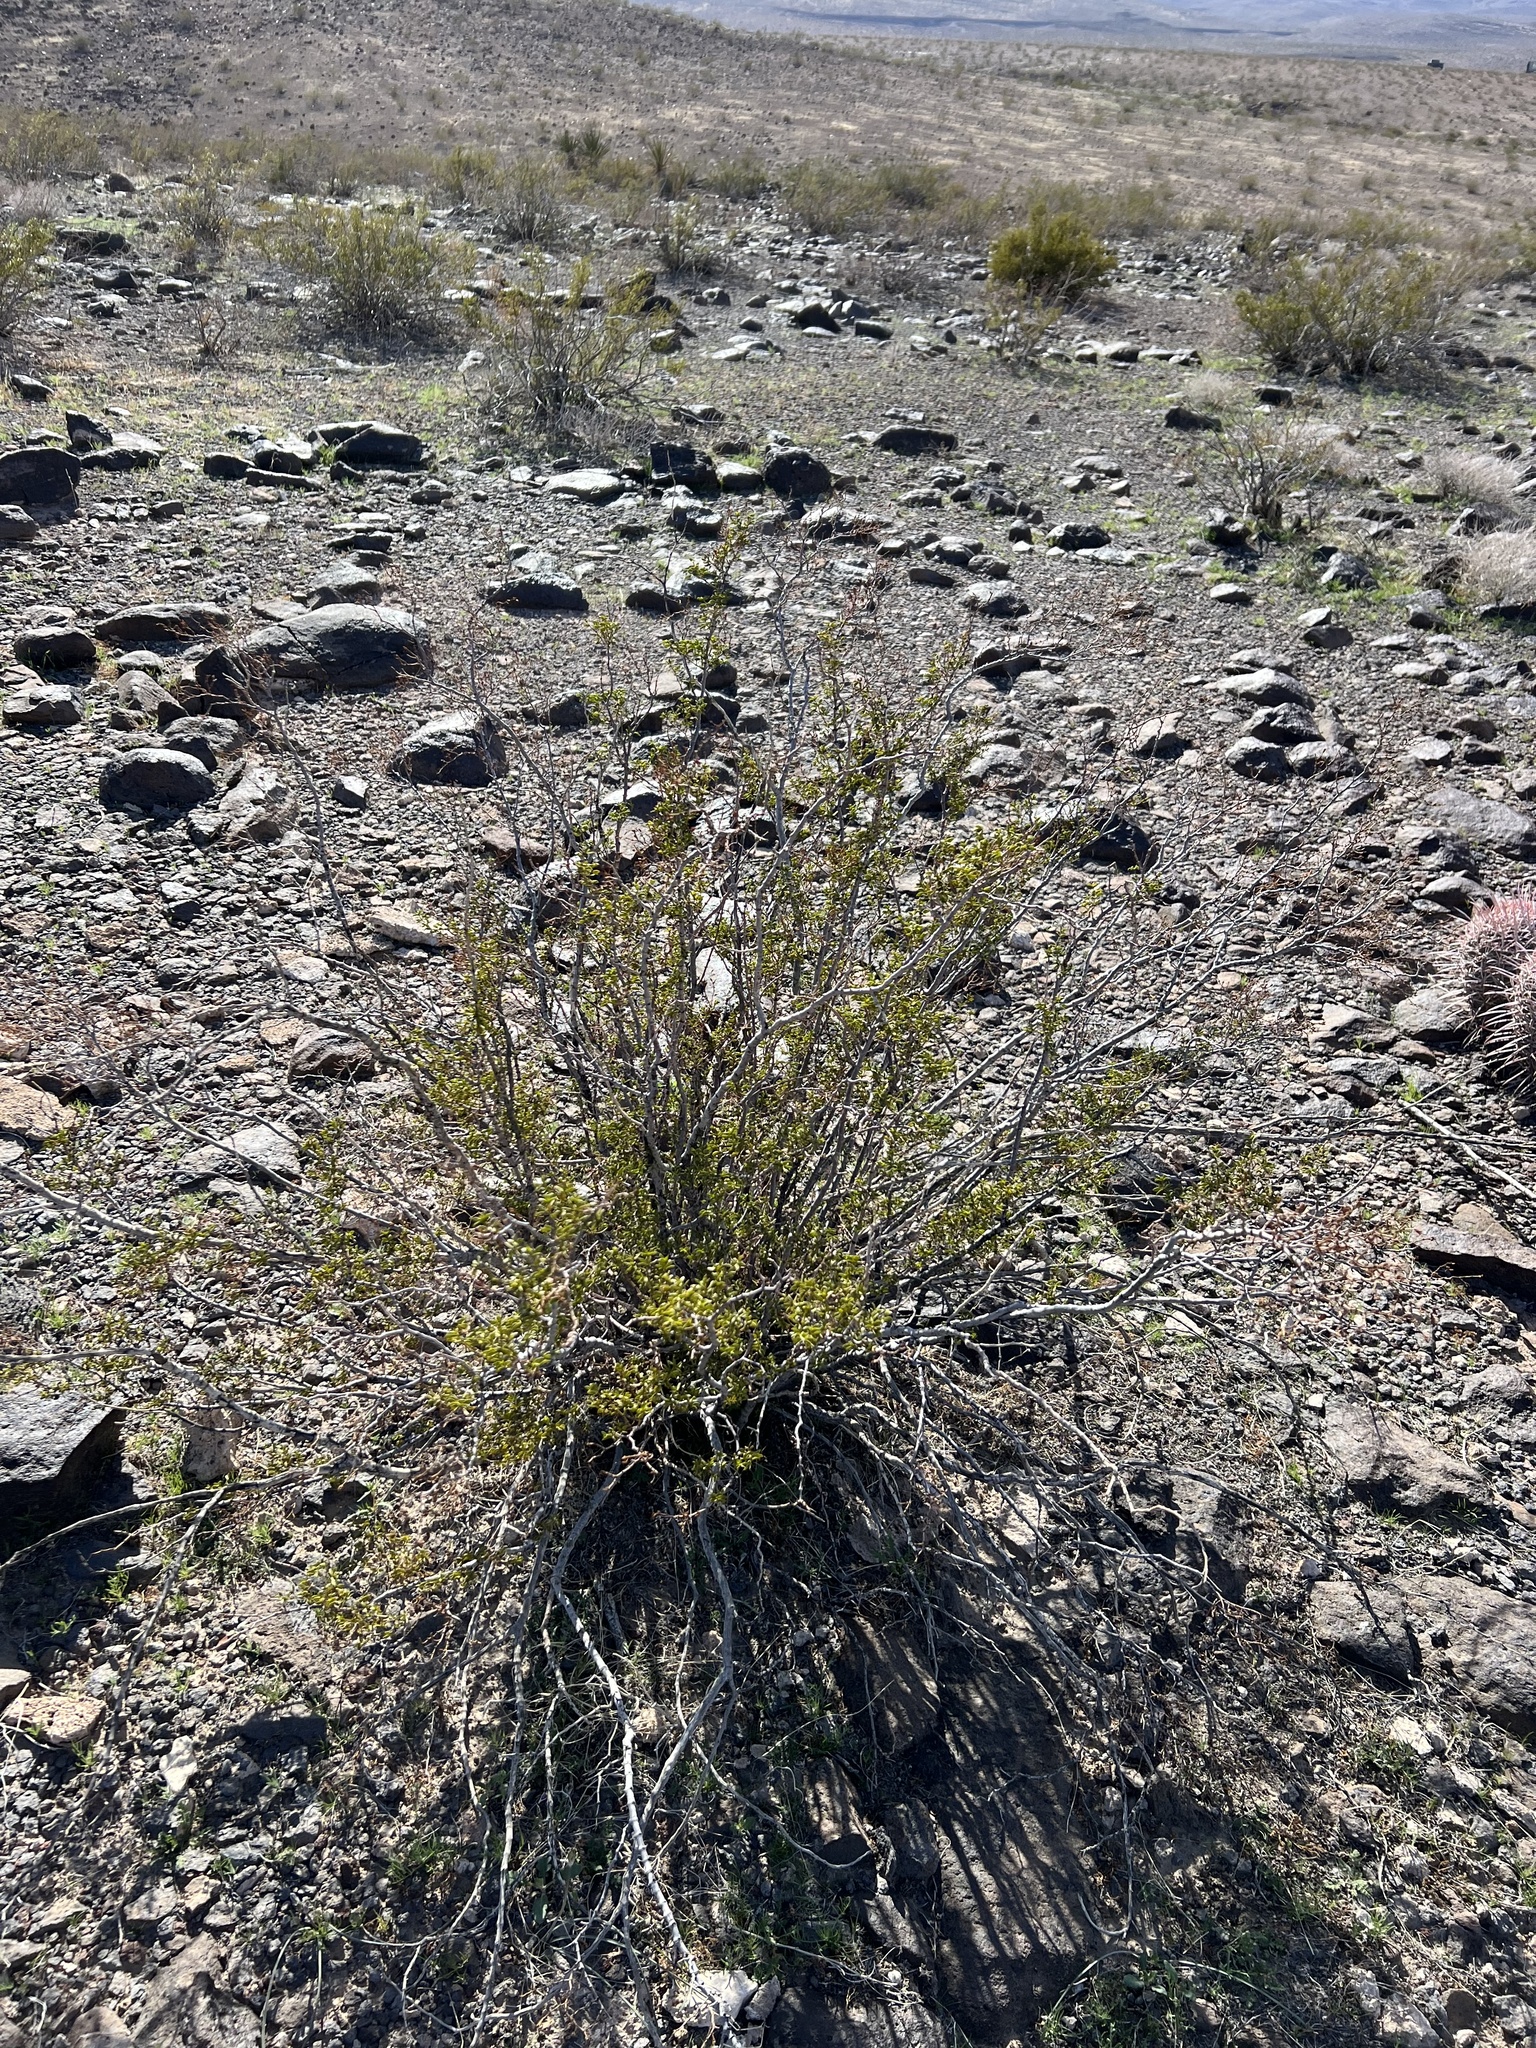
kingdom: Plantae
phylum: Tracheophyta
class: Magnoliopsida
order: Zygophyllales
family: Zygophyllaceae
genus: Larrea
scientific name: Larrea tridentata
